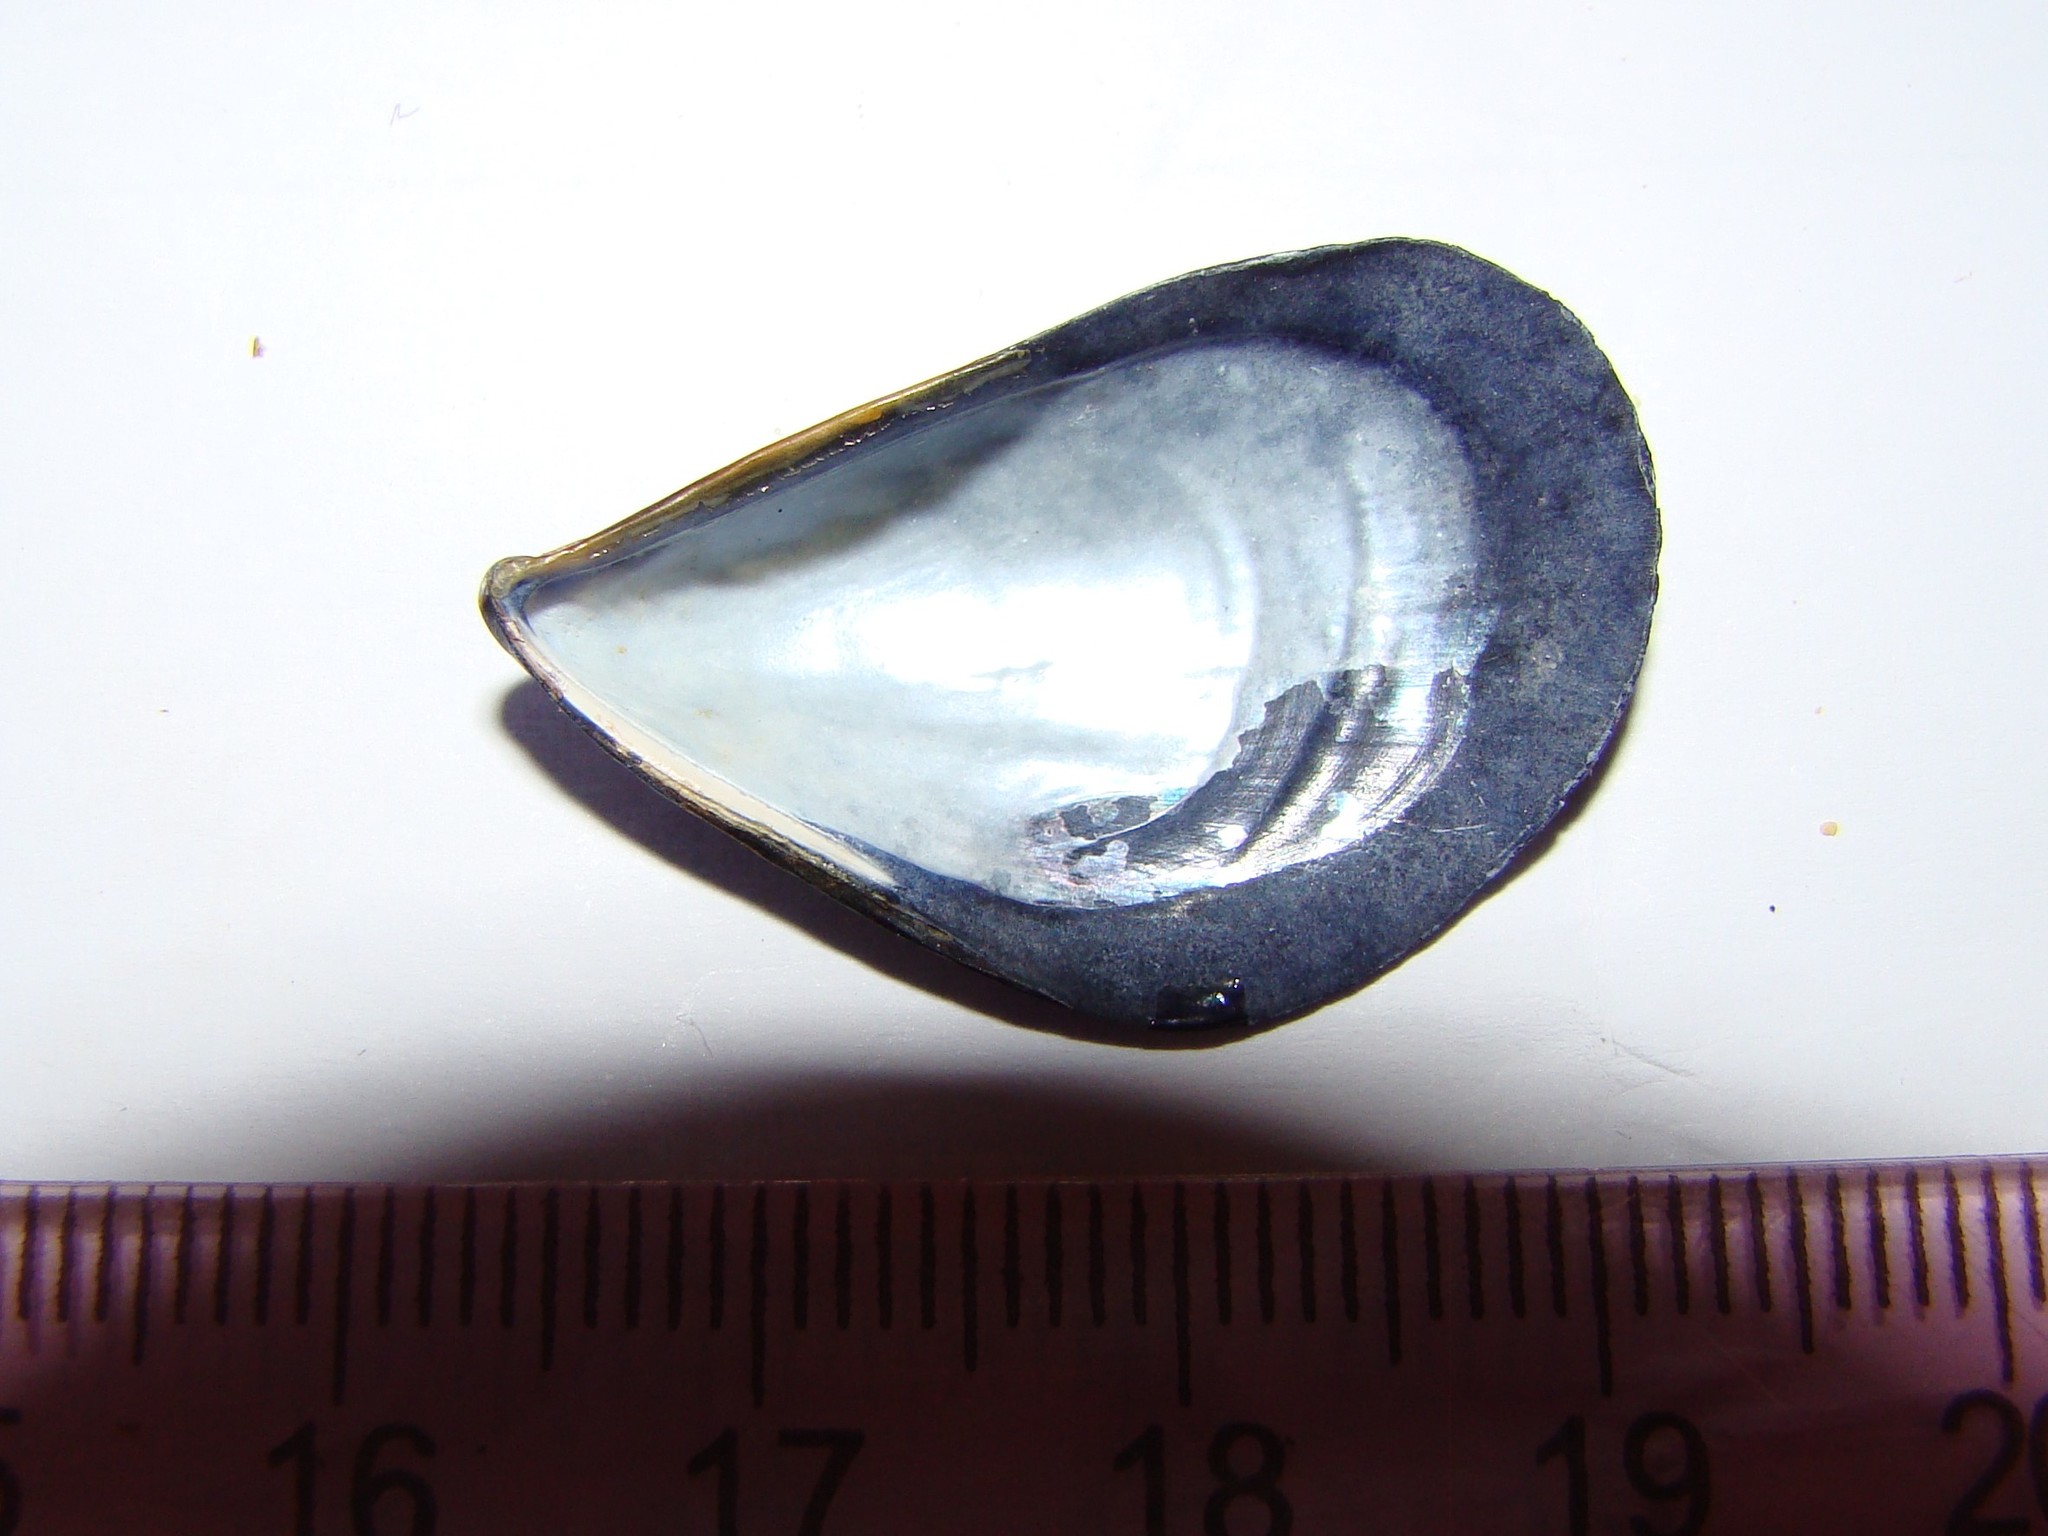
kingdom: Animalia
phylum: Mollusca
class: Bivalvia
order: Mytilida
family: Mytilidae
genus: Mytilus
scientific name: Mytilus planulatus
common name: Australian mussel
